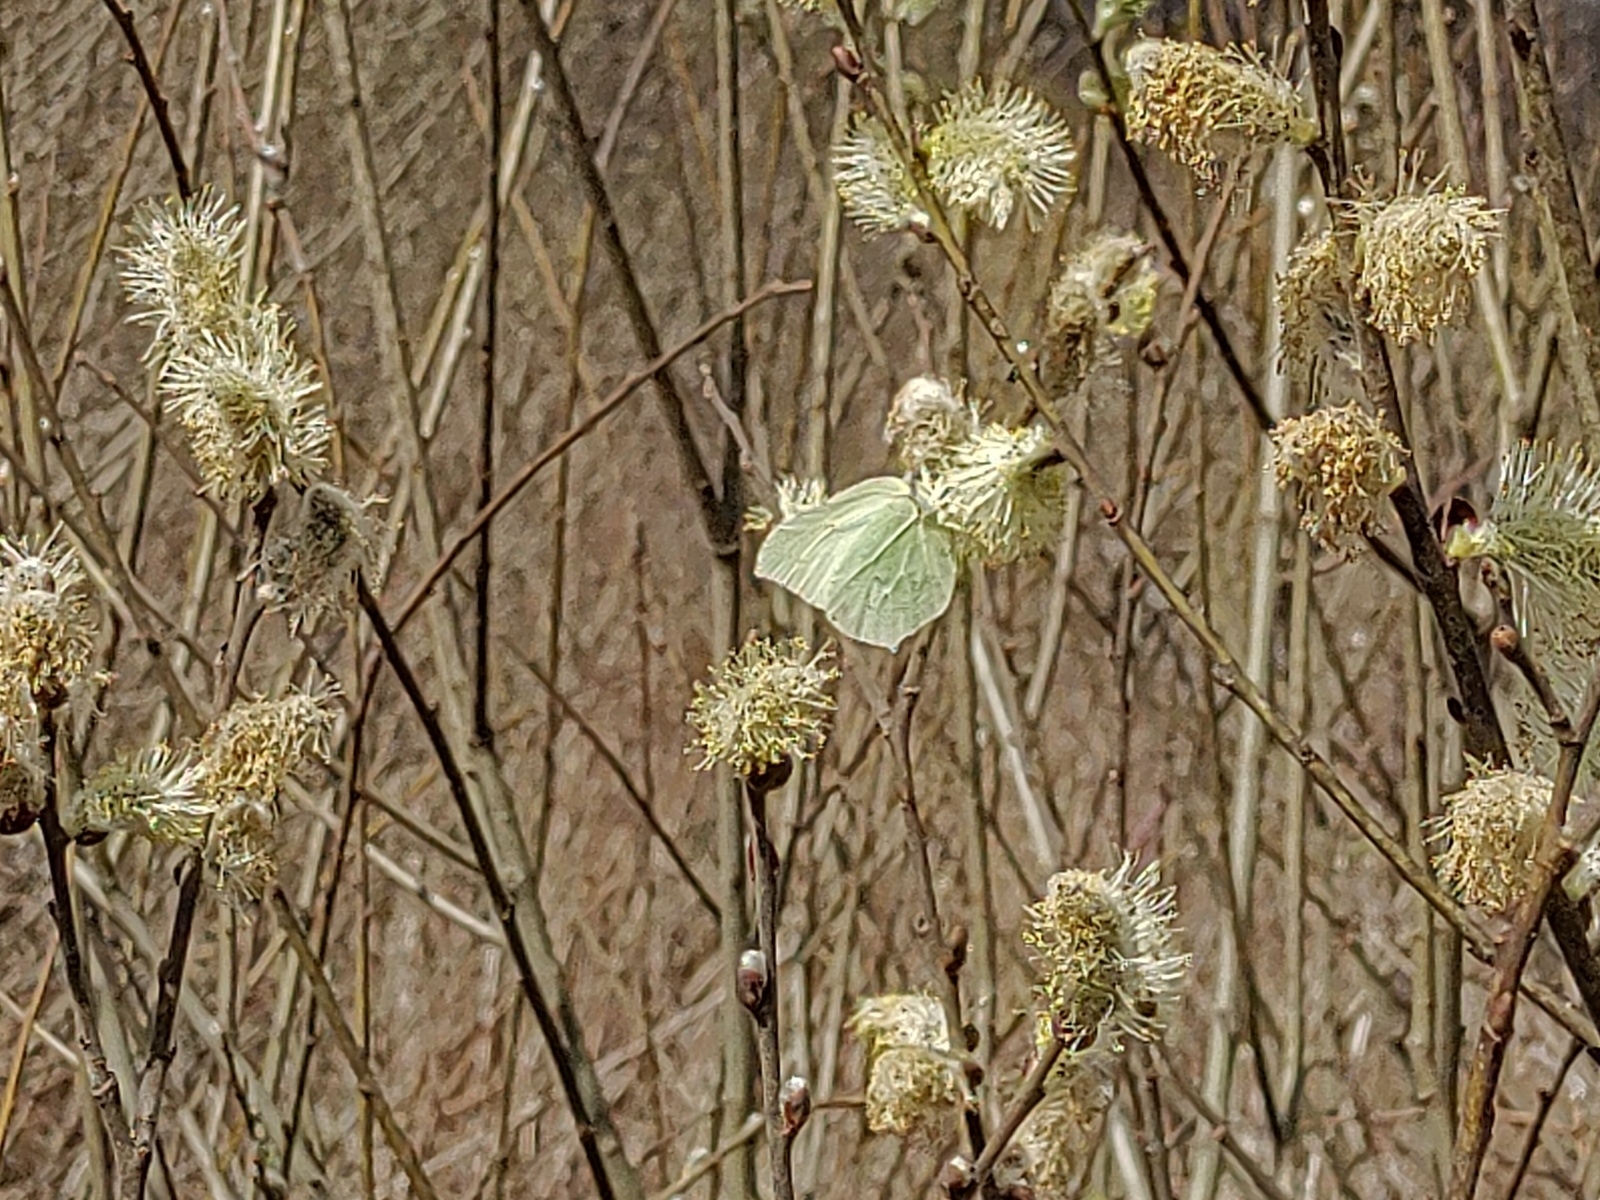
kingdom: Animalia
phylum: Arthropoda
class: Insecta
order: Lepidoptera
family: Pieridae
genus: Gonepteryx
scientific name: Gonepteryx rhamni
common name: Brimstone
